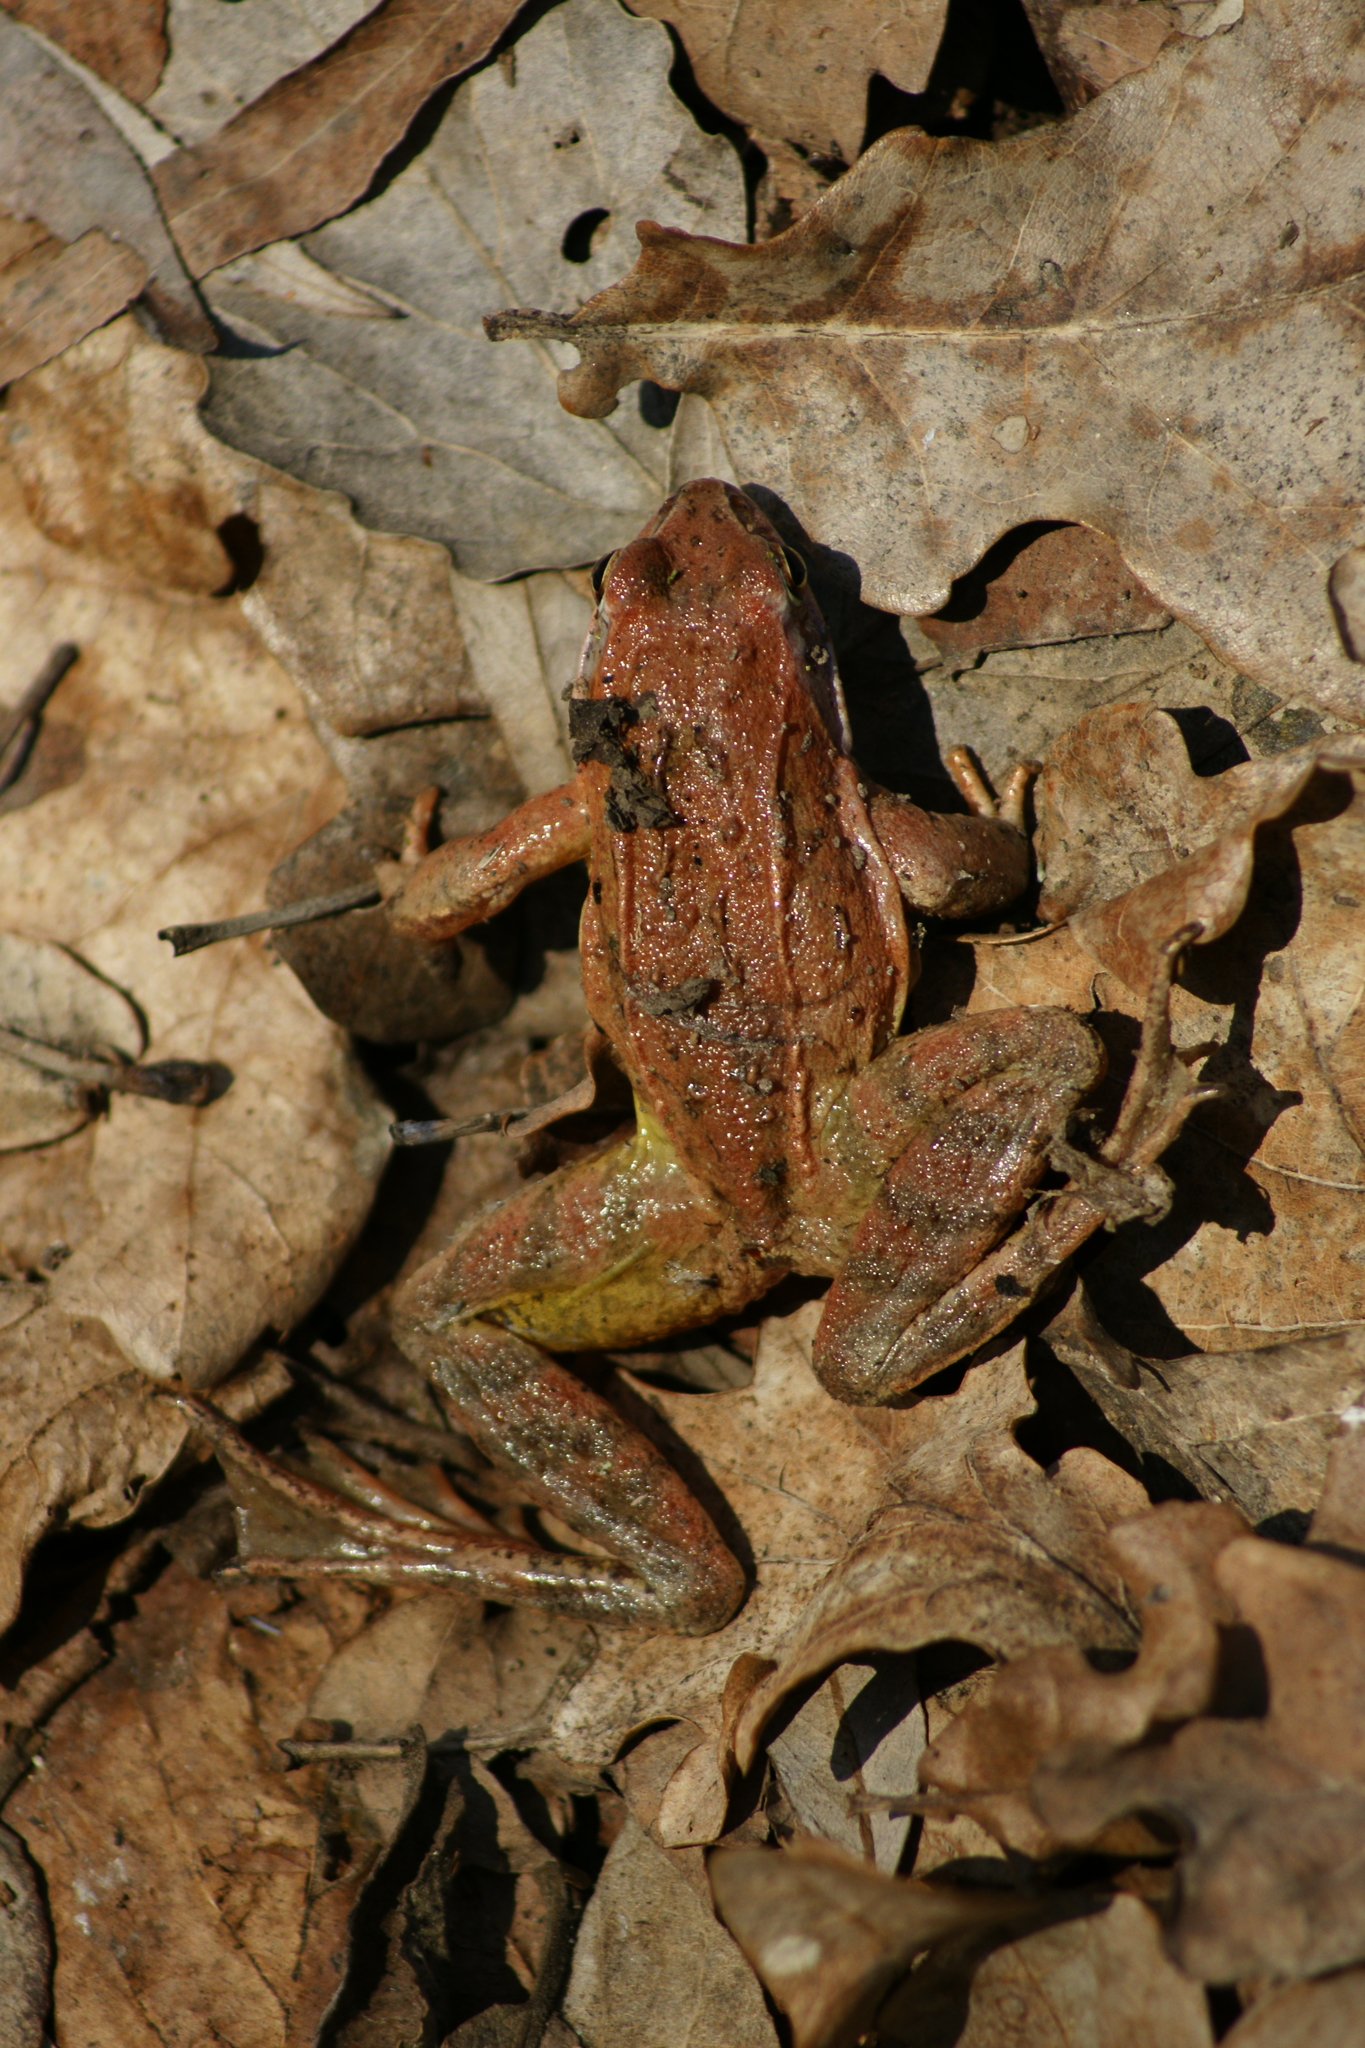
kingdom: Animalia
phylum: Chordata
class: Amphibia
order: Anura
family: Ranidae
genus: Rana
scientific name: Rana arvalis
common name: Moor frog
